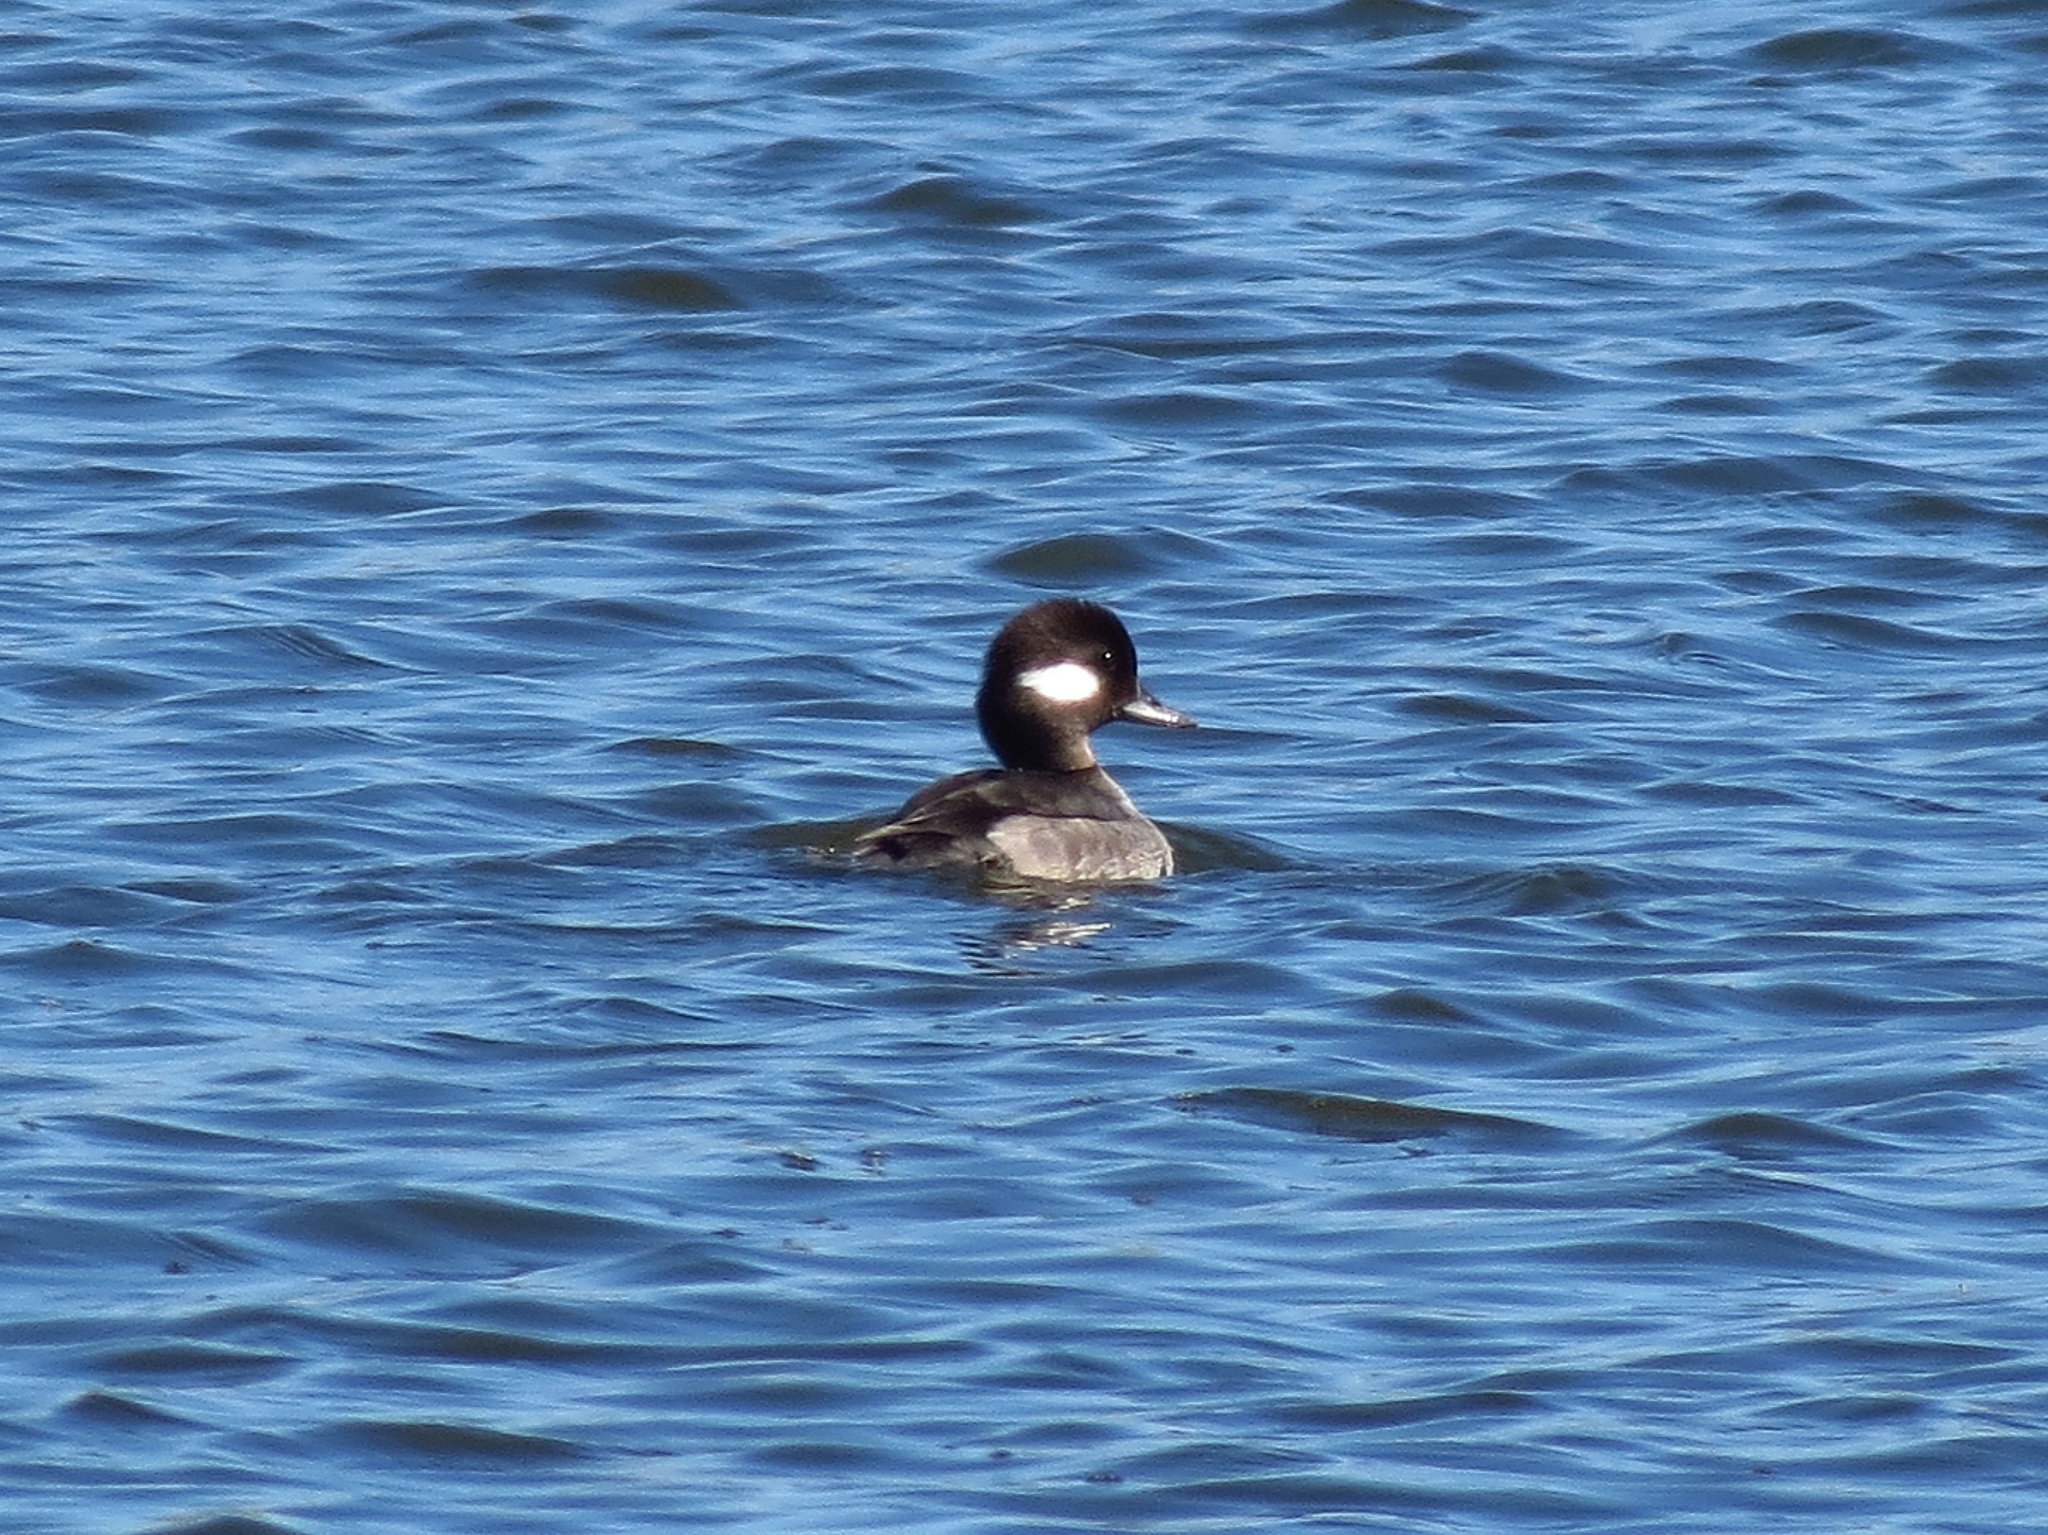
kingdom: Animalia
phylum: Chordata
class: Aves
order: Anseriformes
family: Anatidae
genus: Bucephala
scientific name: Bucephala albeola
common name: Bufflehead
